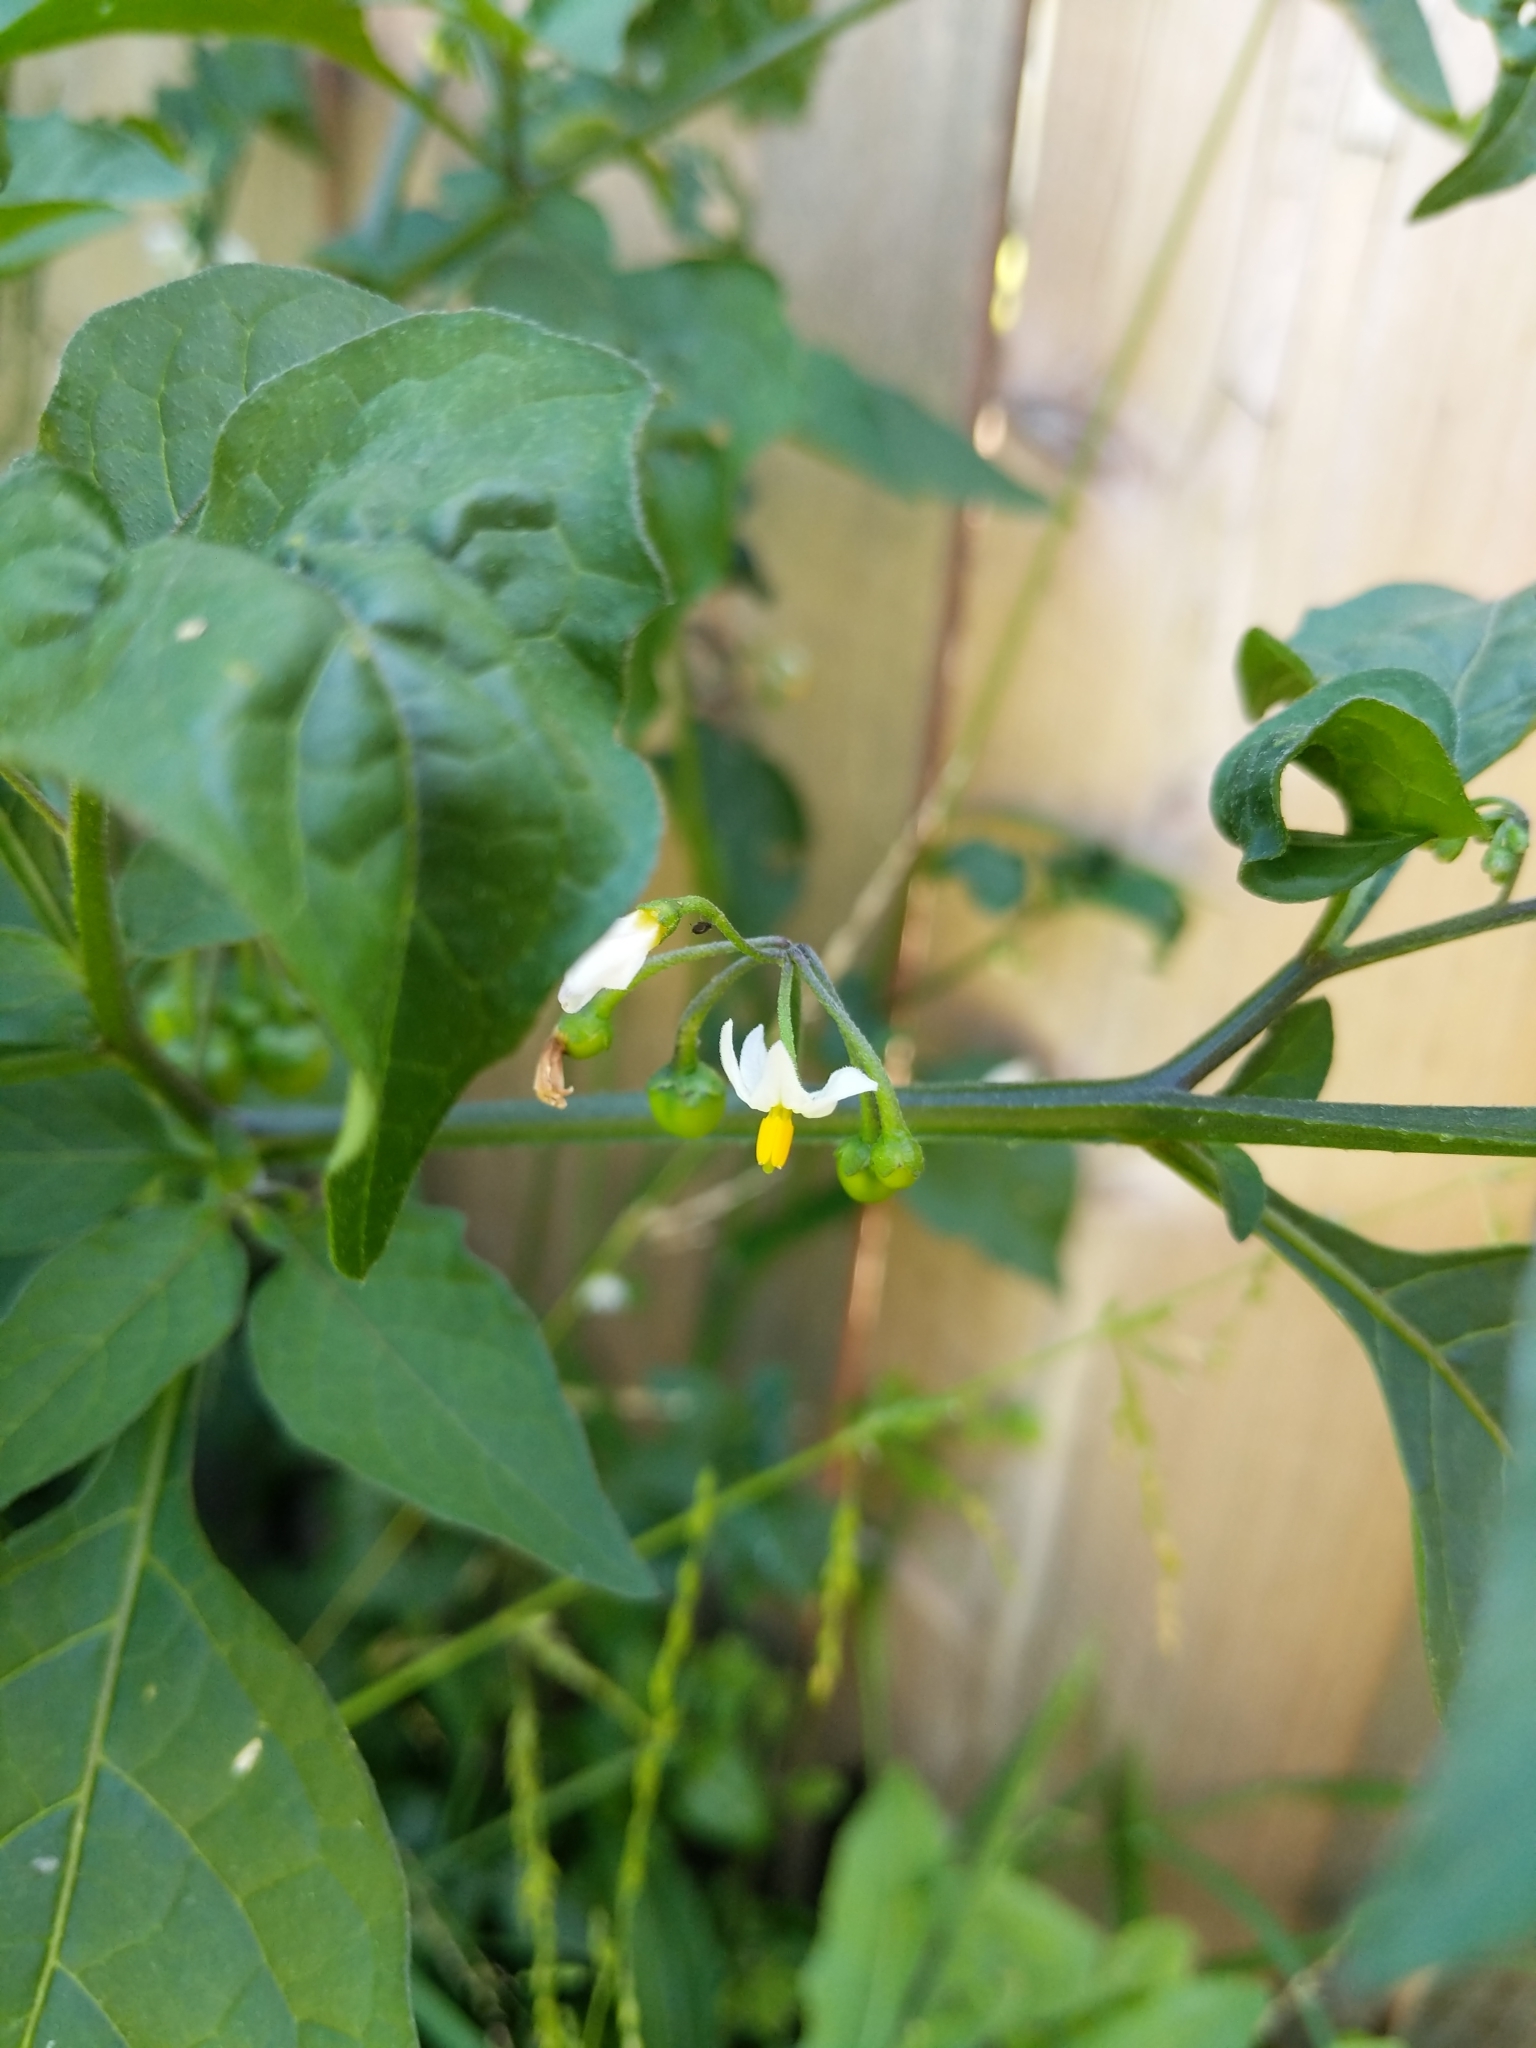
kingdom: Plantae
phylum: Tracheophyta
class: Magnoliopsida
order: Solanales
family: Solanaceae
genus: Solanum
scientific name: Solanum americanum
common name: American black nightshade
